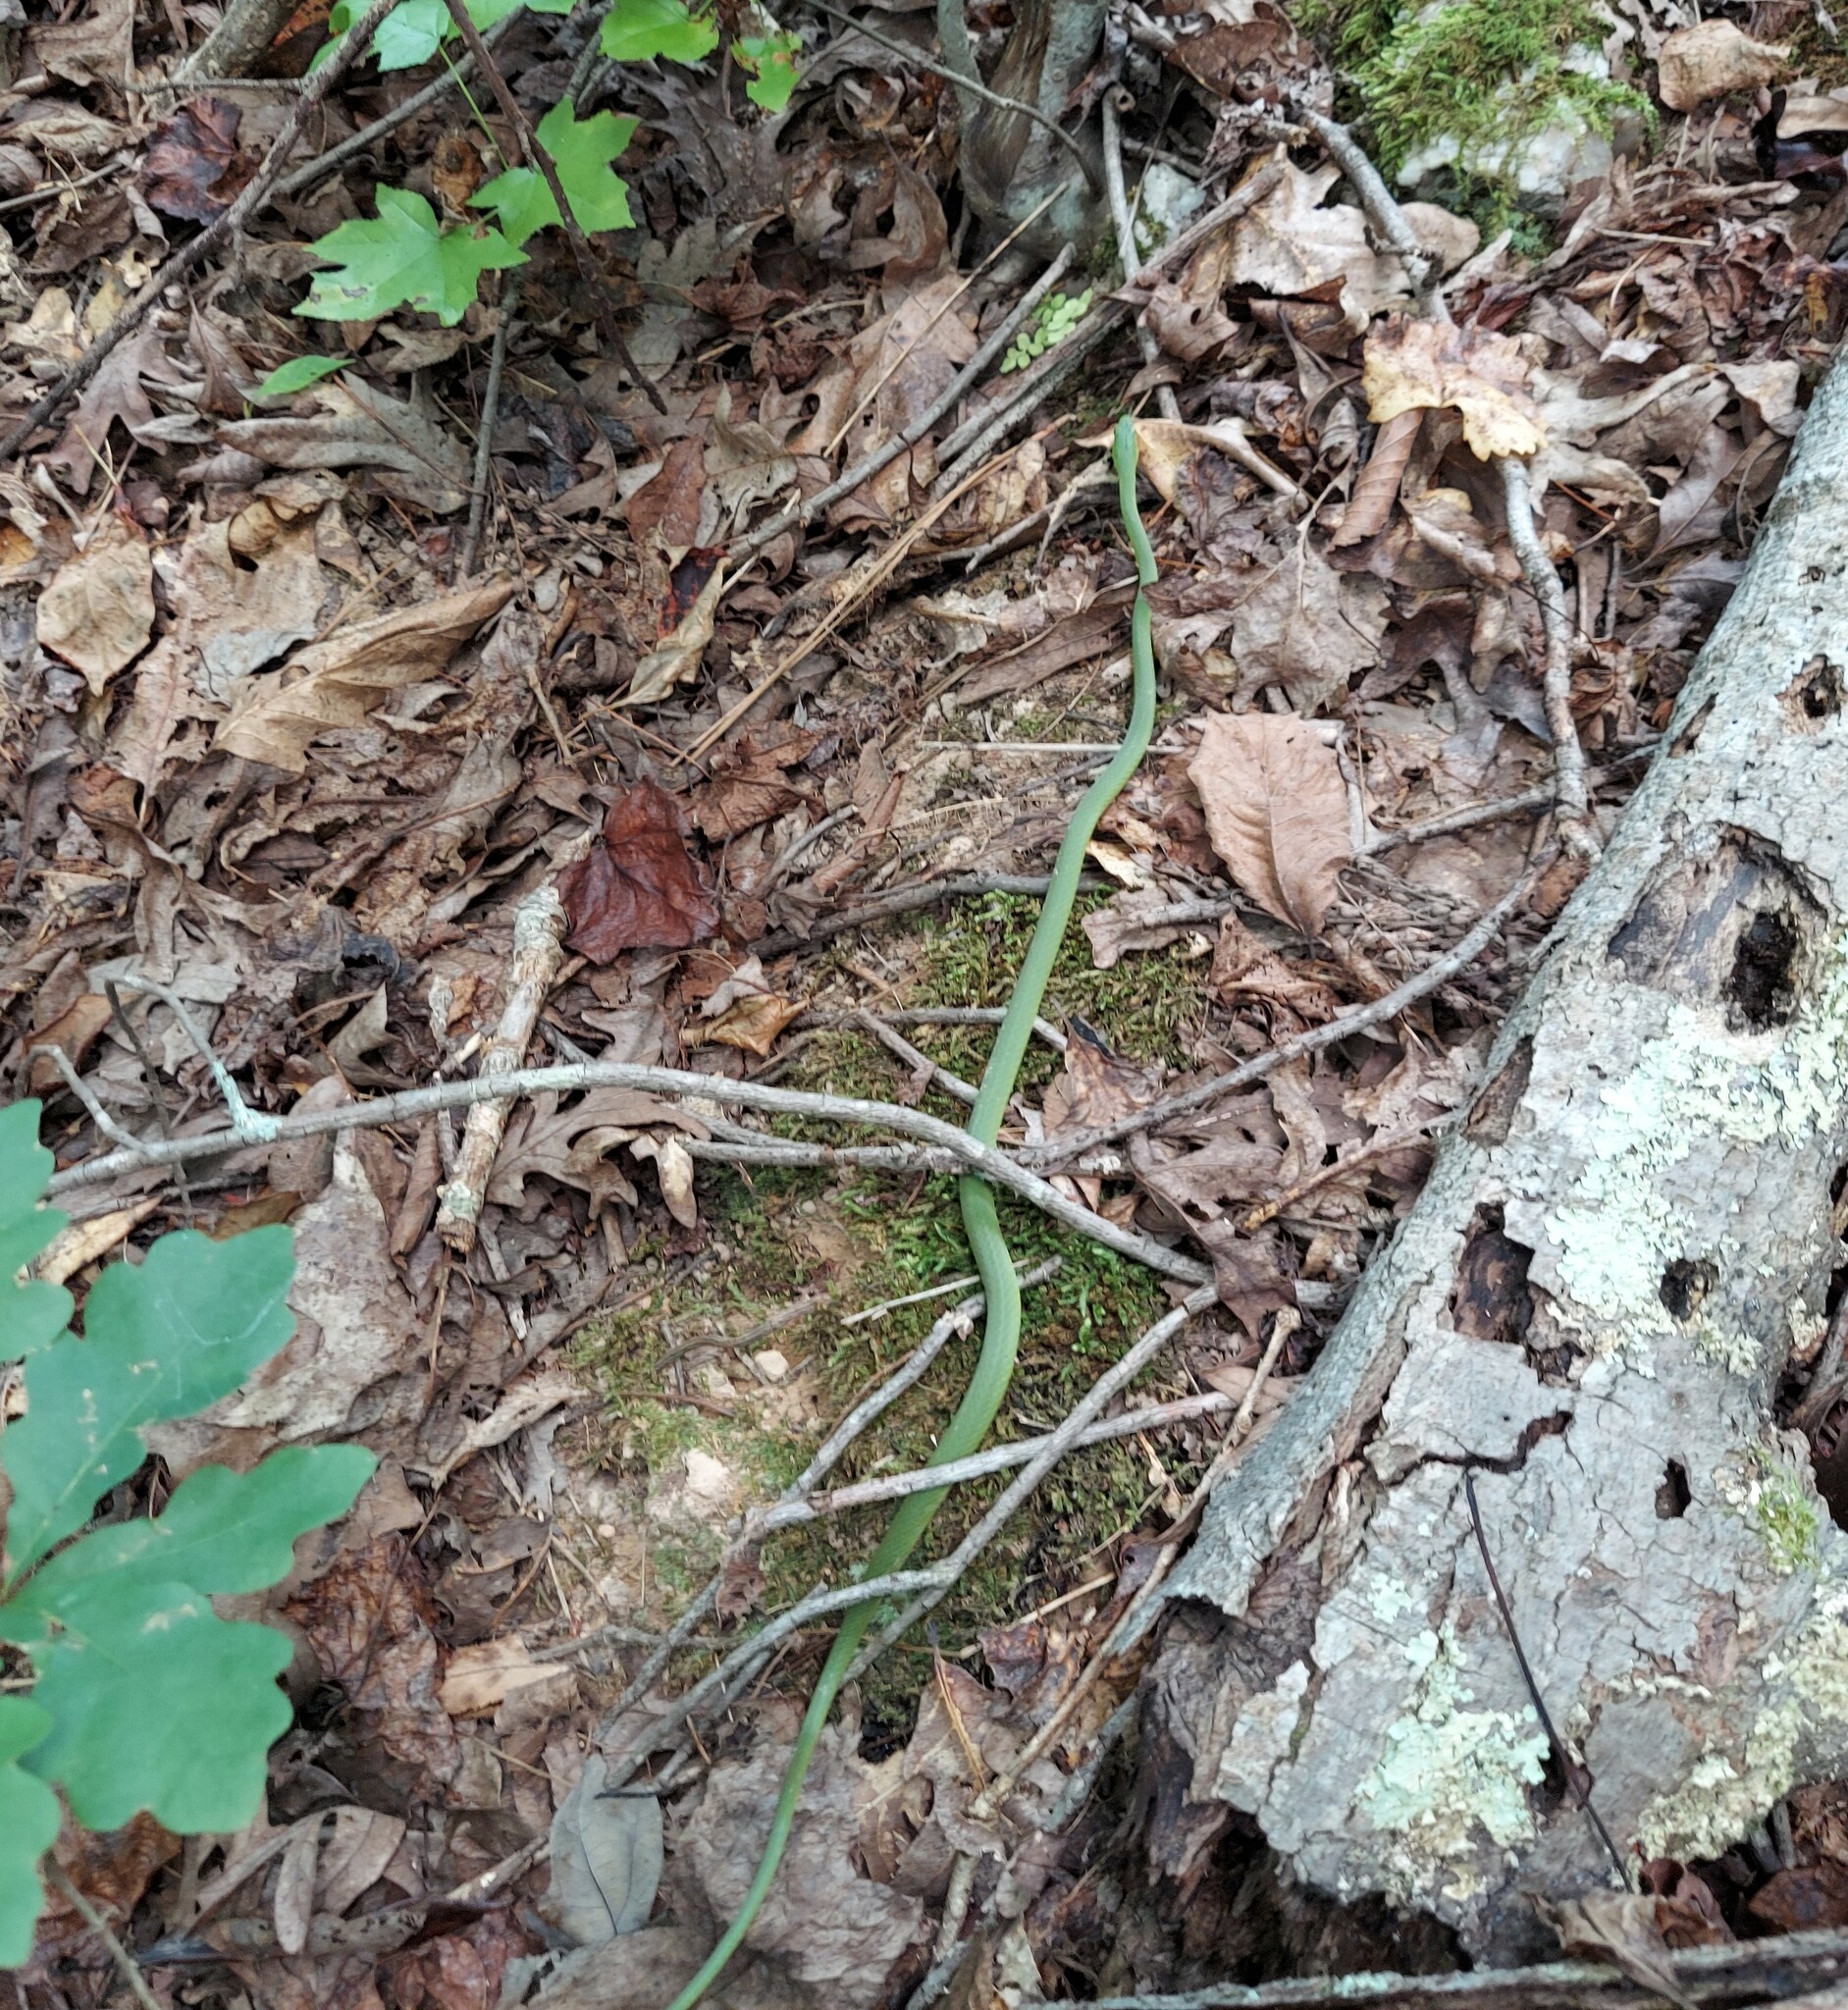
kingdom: Animalia
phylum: Chordata
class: Squamata
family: Colubridae
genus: Opheodrys
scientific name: Opheodrys aestivus
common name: Rough greensnake
